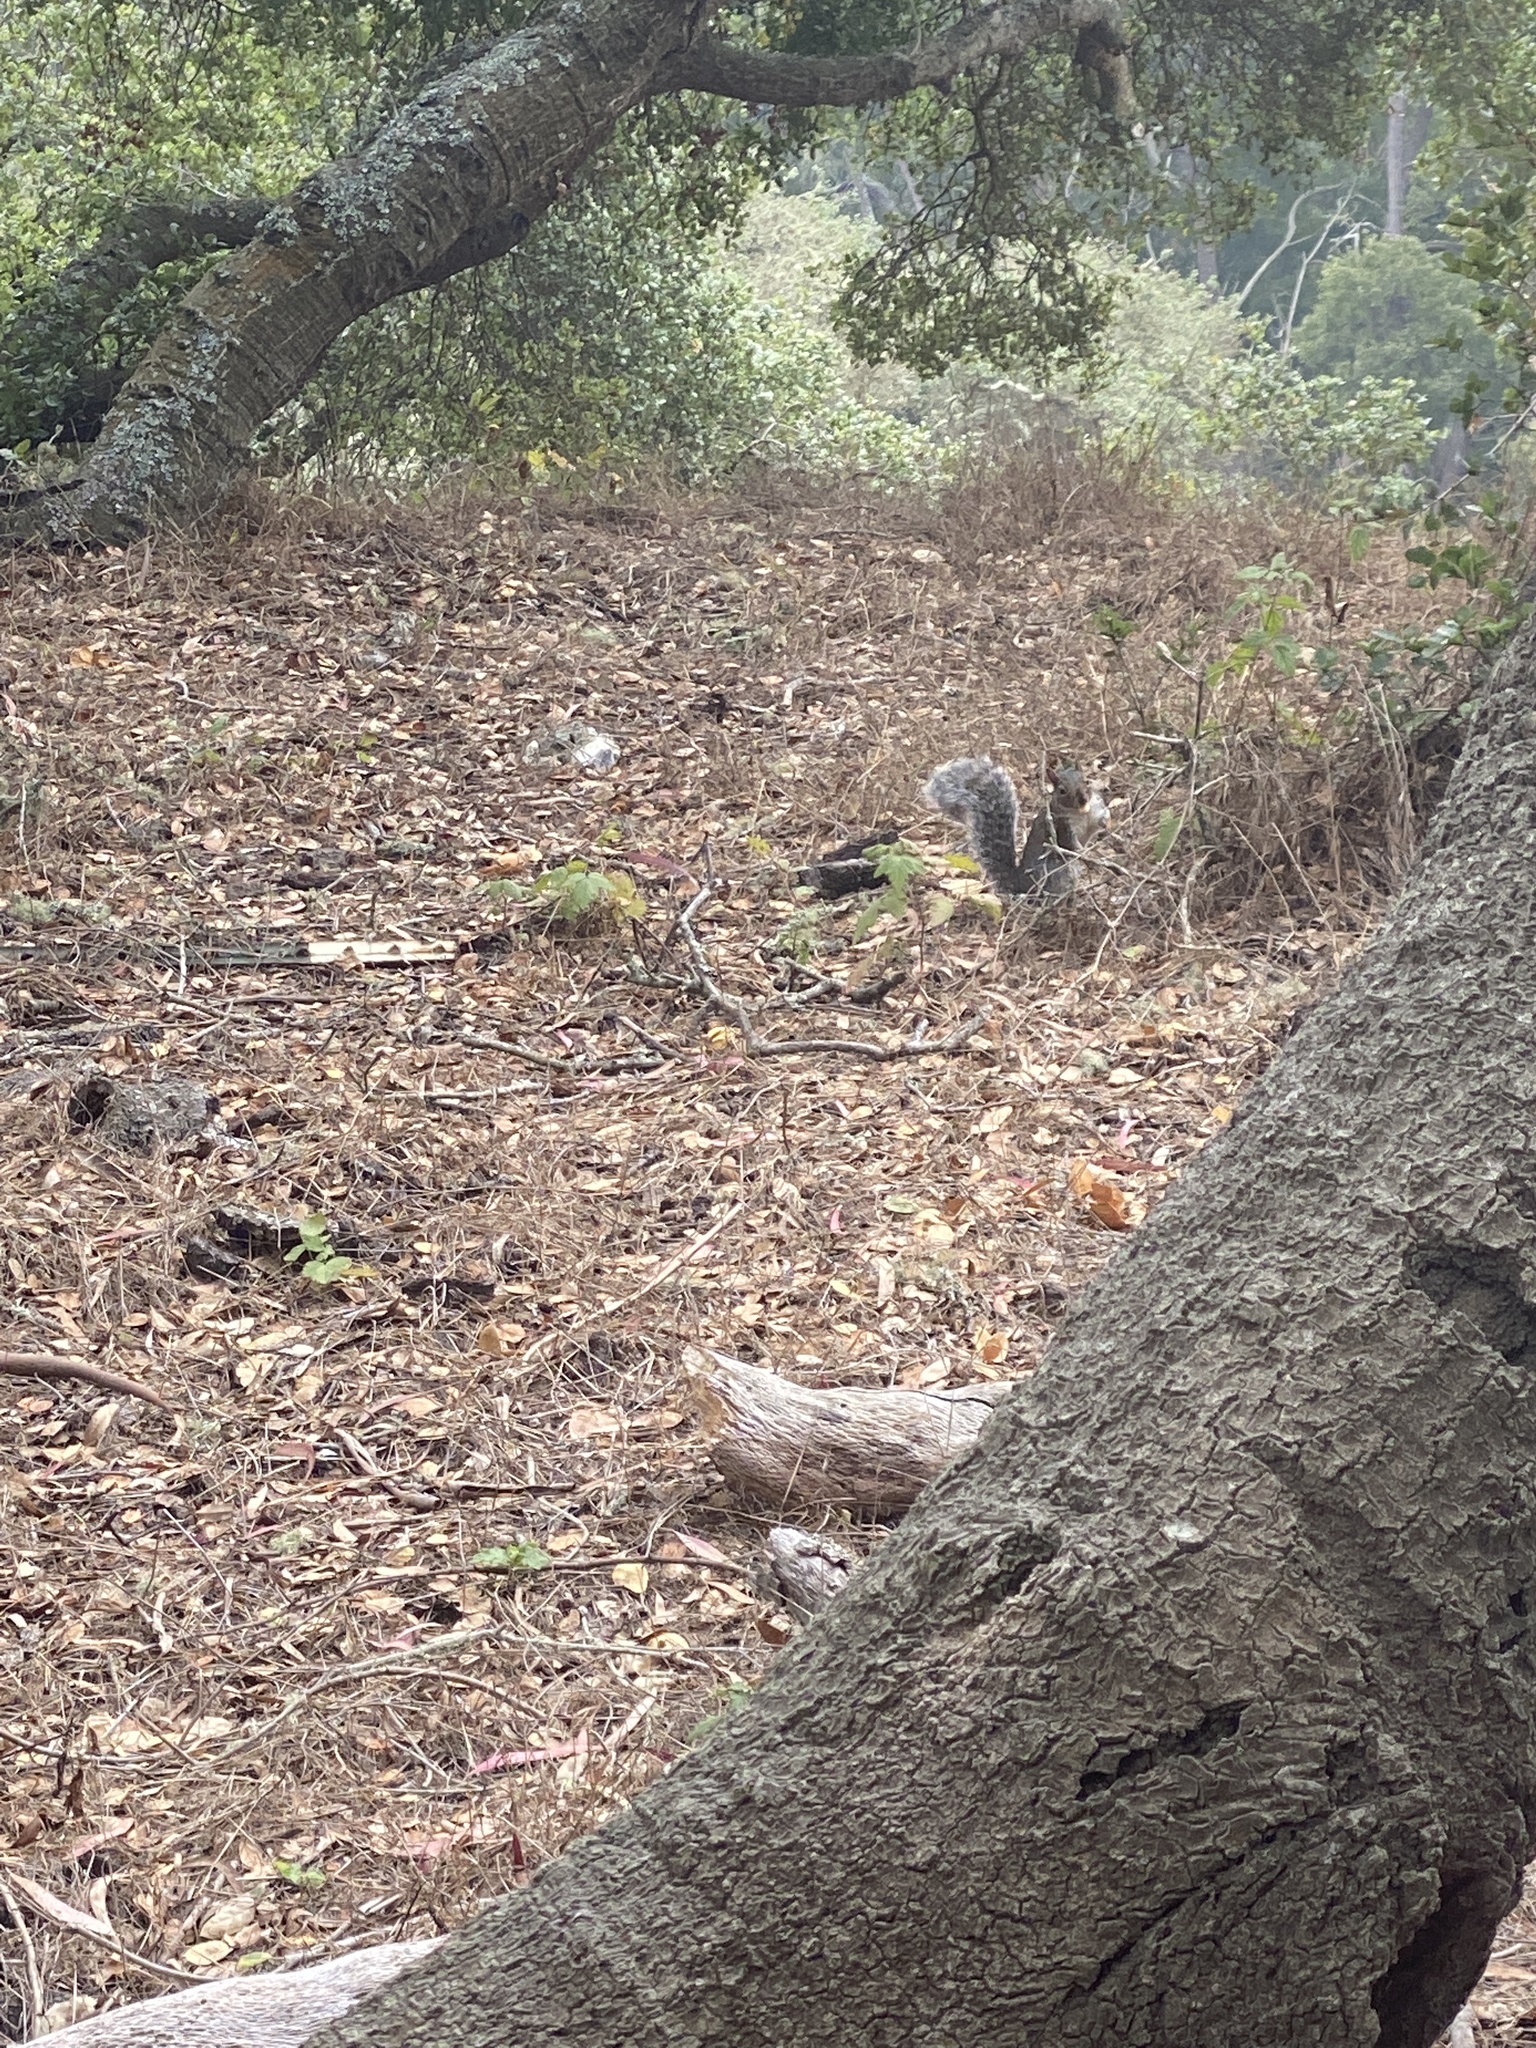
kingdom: Animalia
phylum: Chordata
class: Mammalia
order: Rodentia
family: Sciuridae
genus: Sciurus
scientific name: Sciurus carolinensis
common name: Eastern gray squirrel
